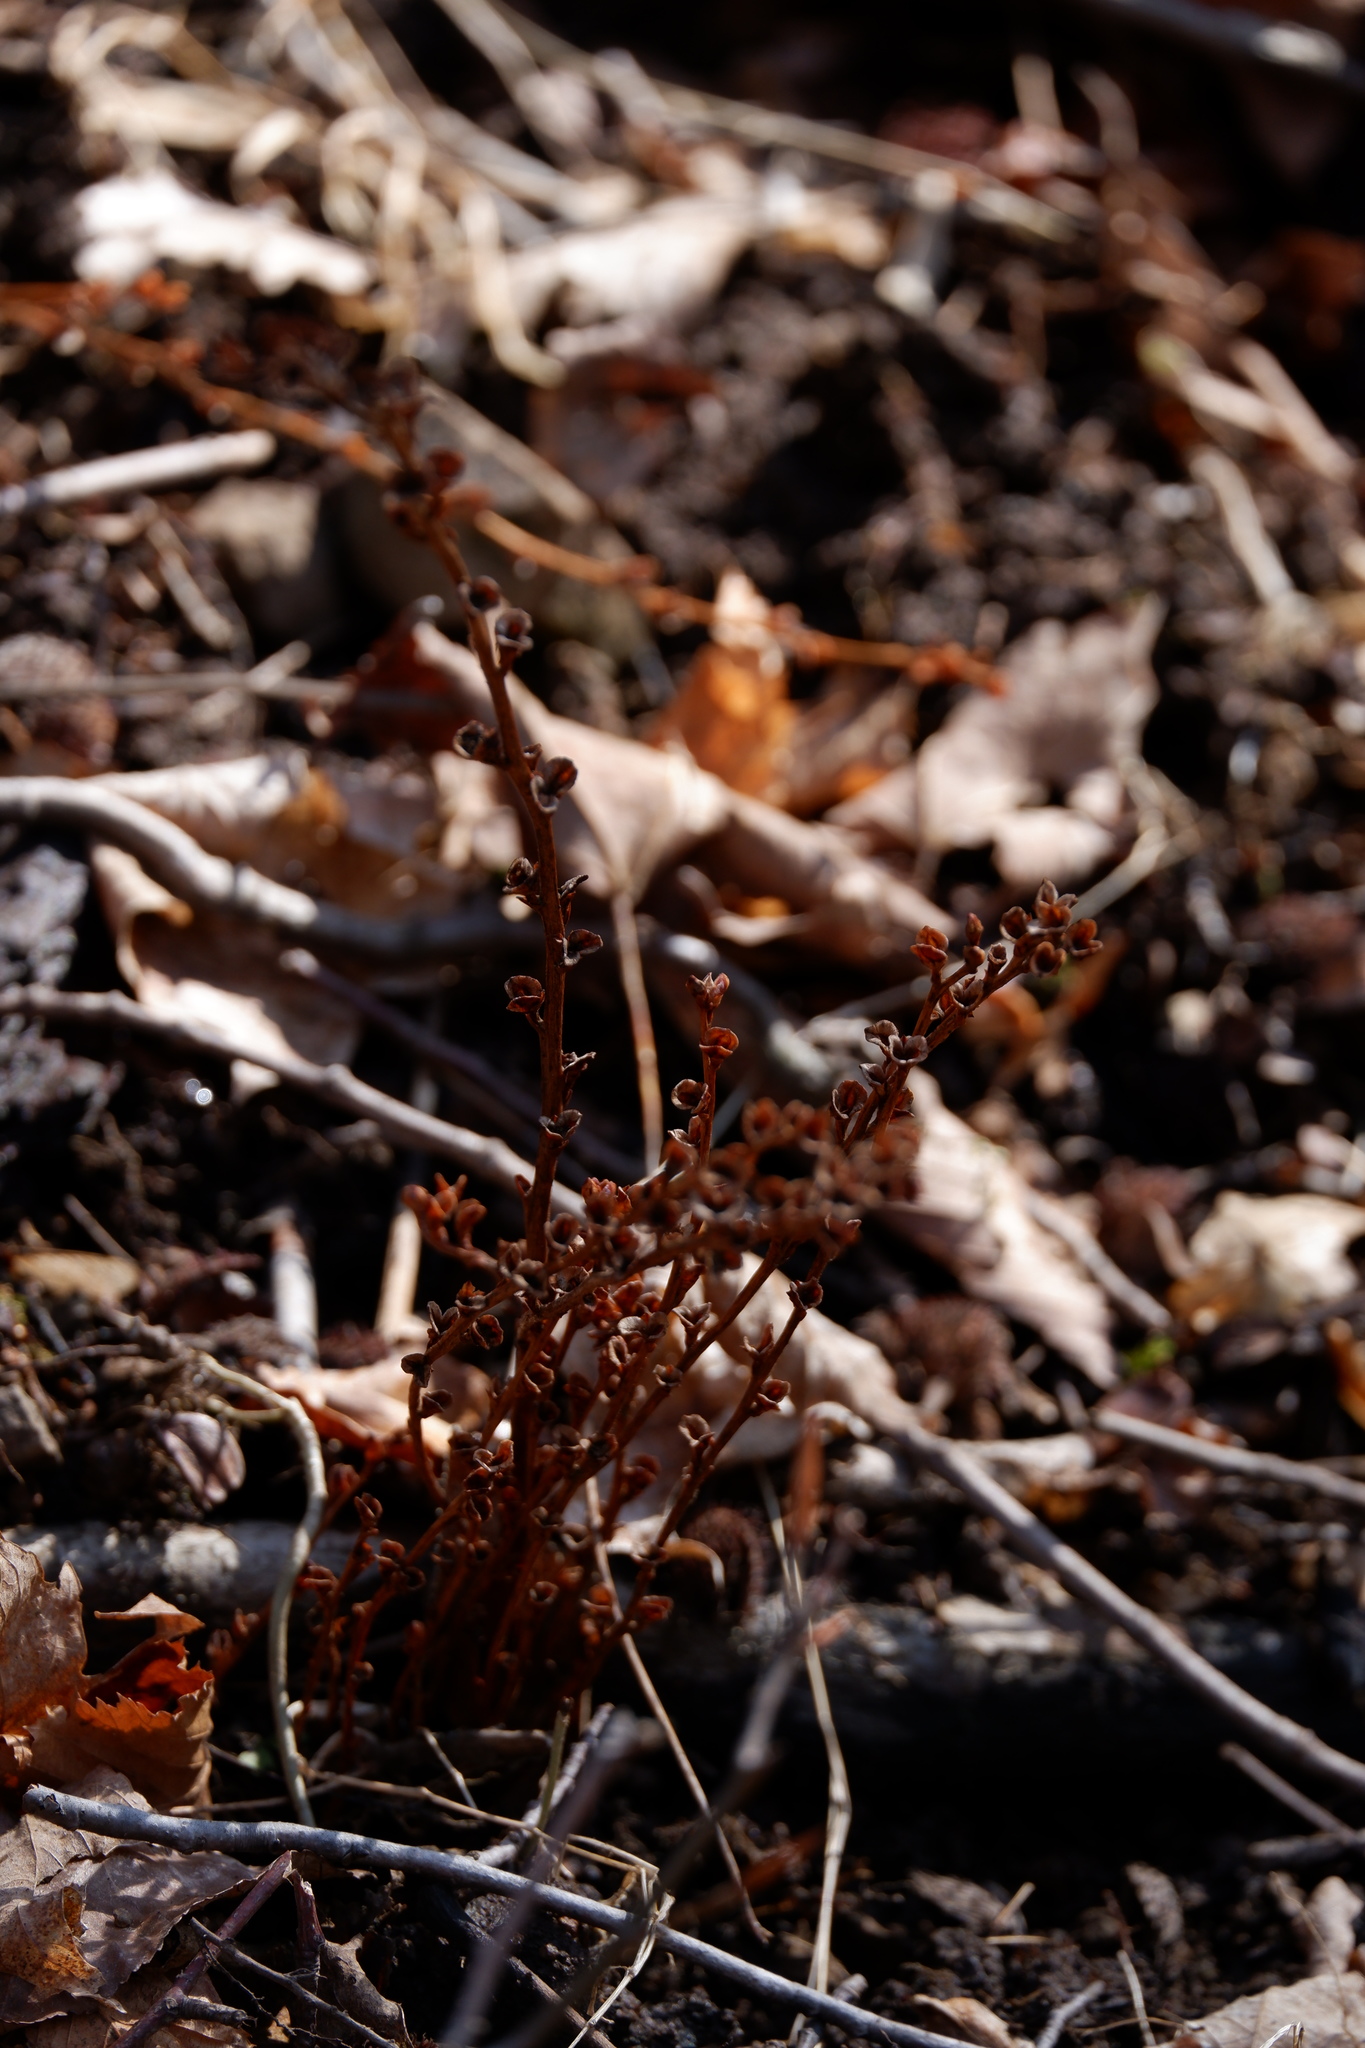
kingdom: Plantae
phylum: Tracheophyta
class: Magnoliopsida
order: Lamiales
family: Orobanchaceae
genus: Epifagus
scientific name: Epifagus virginiana
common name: Beechdrops
